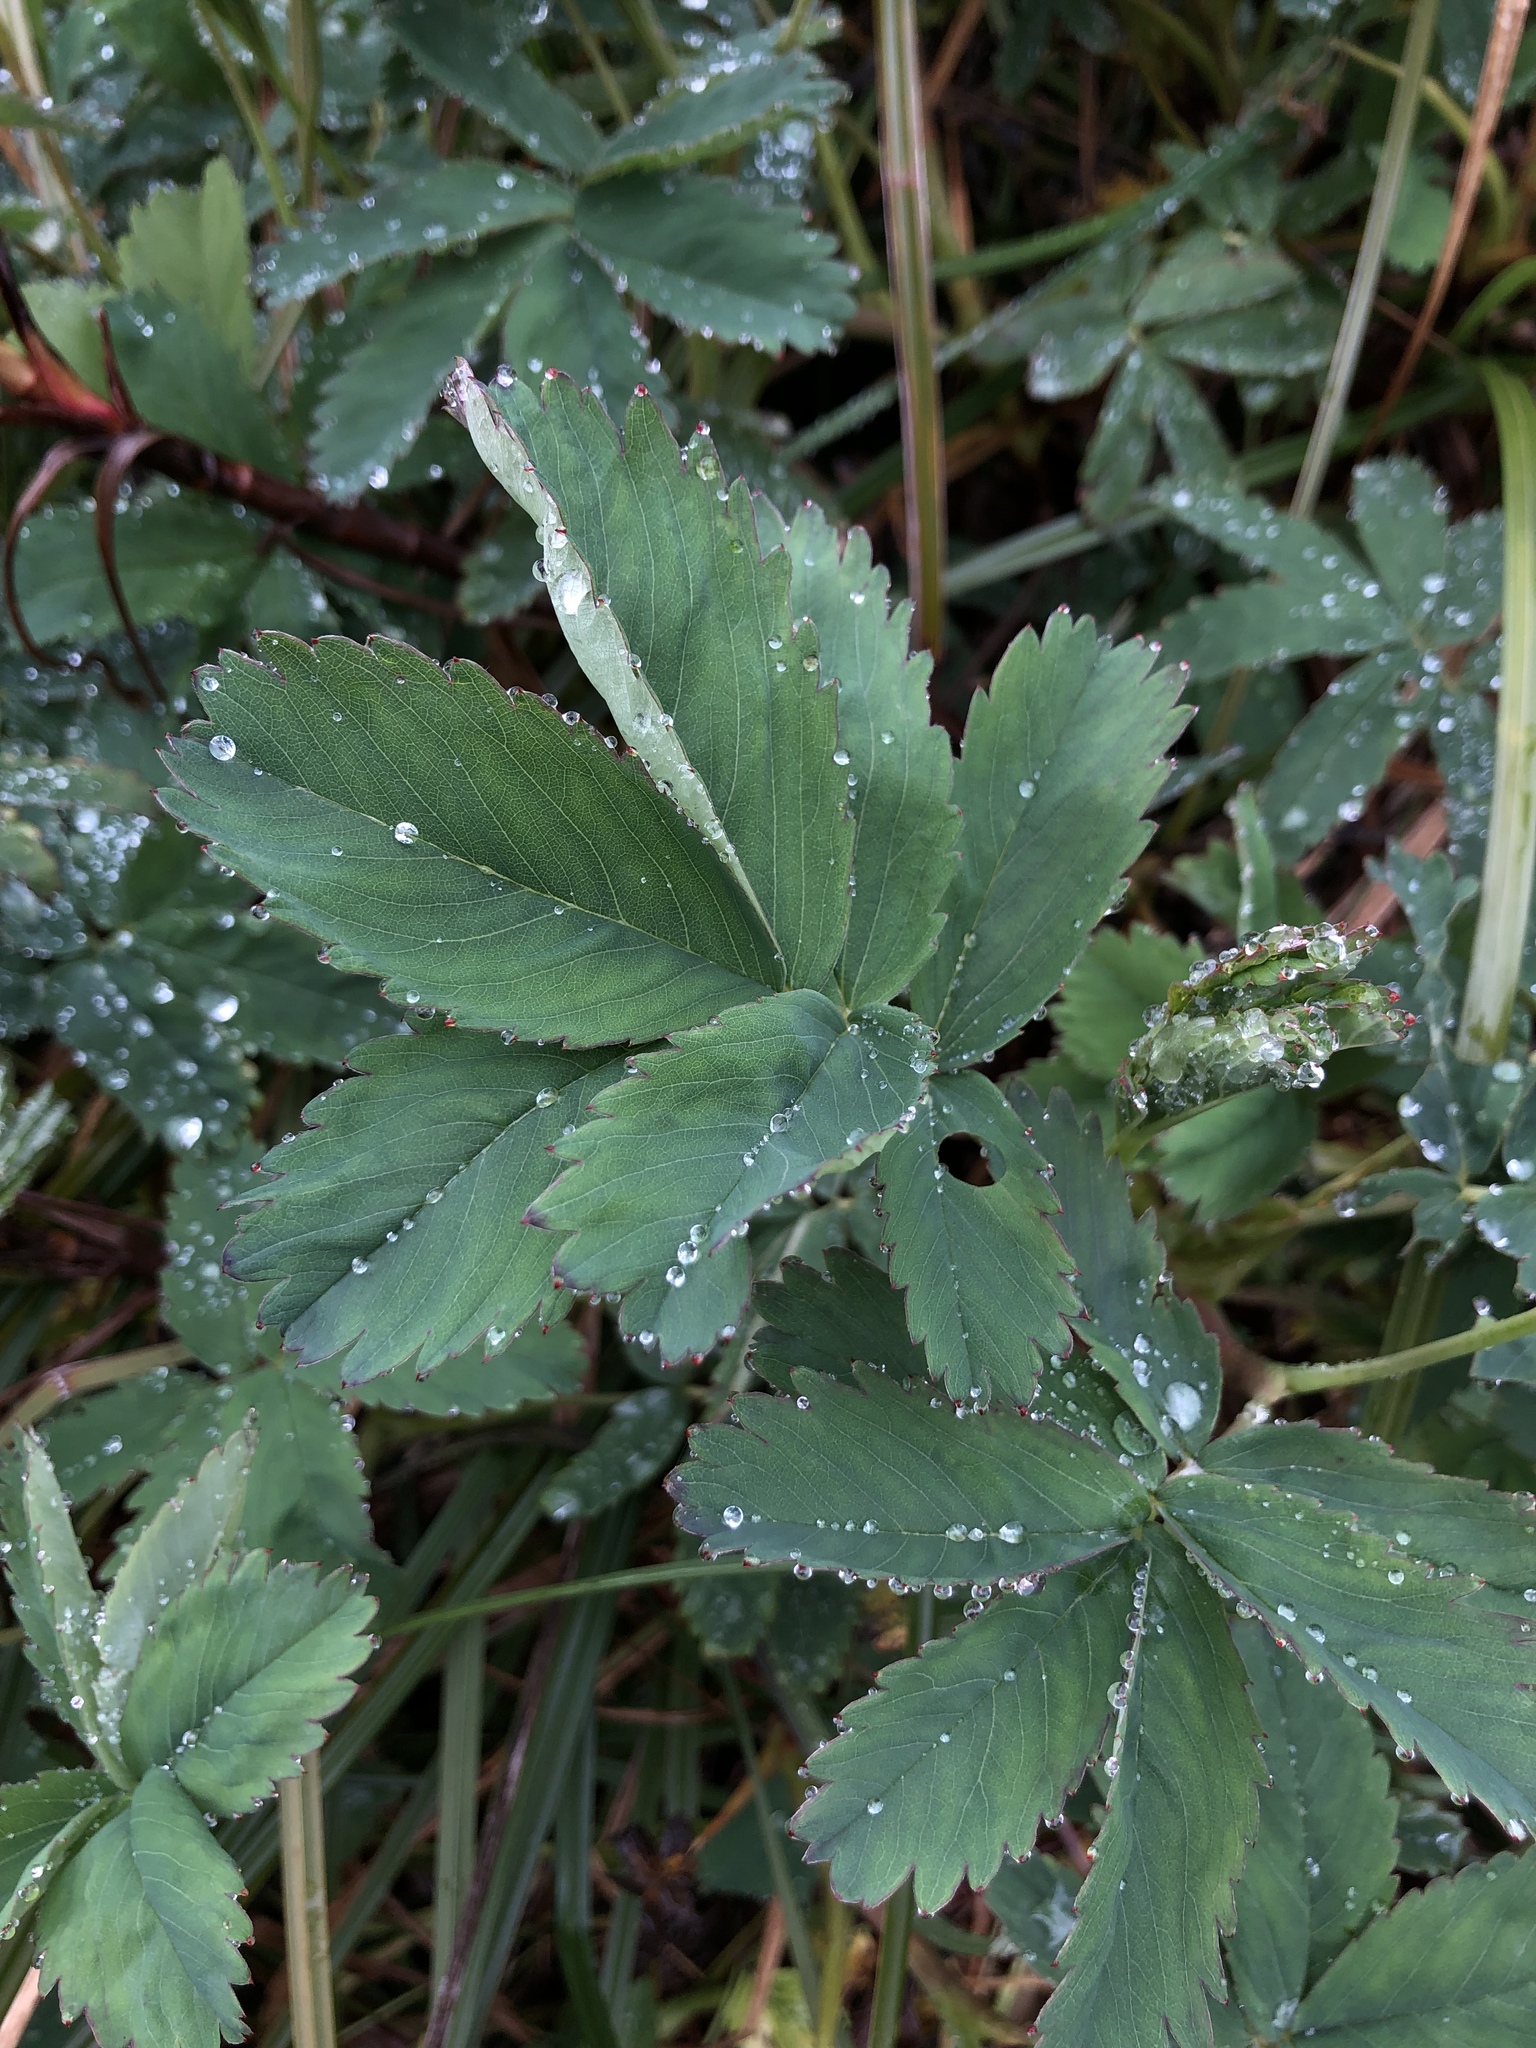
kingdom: Plantae
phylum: Tracheophyta
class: Magnoliopsida
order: Rosales
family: Rosaceae
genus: Comarum
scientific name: Comarum palustre
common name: Marsh cinquefoil
